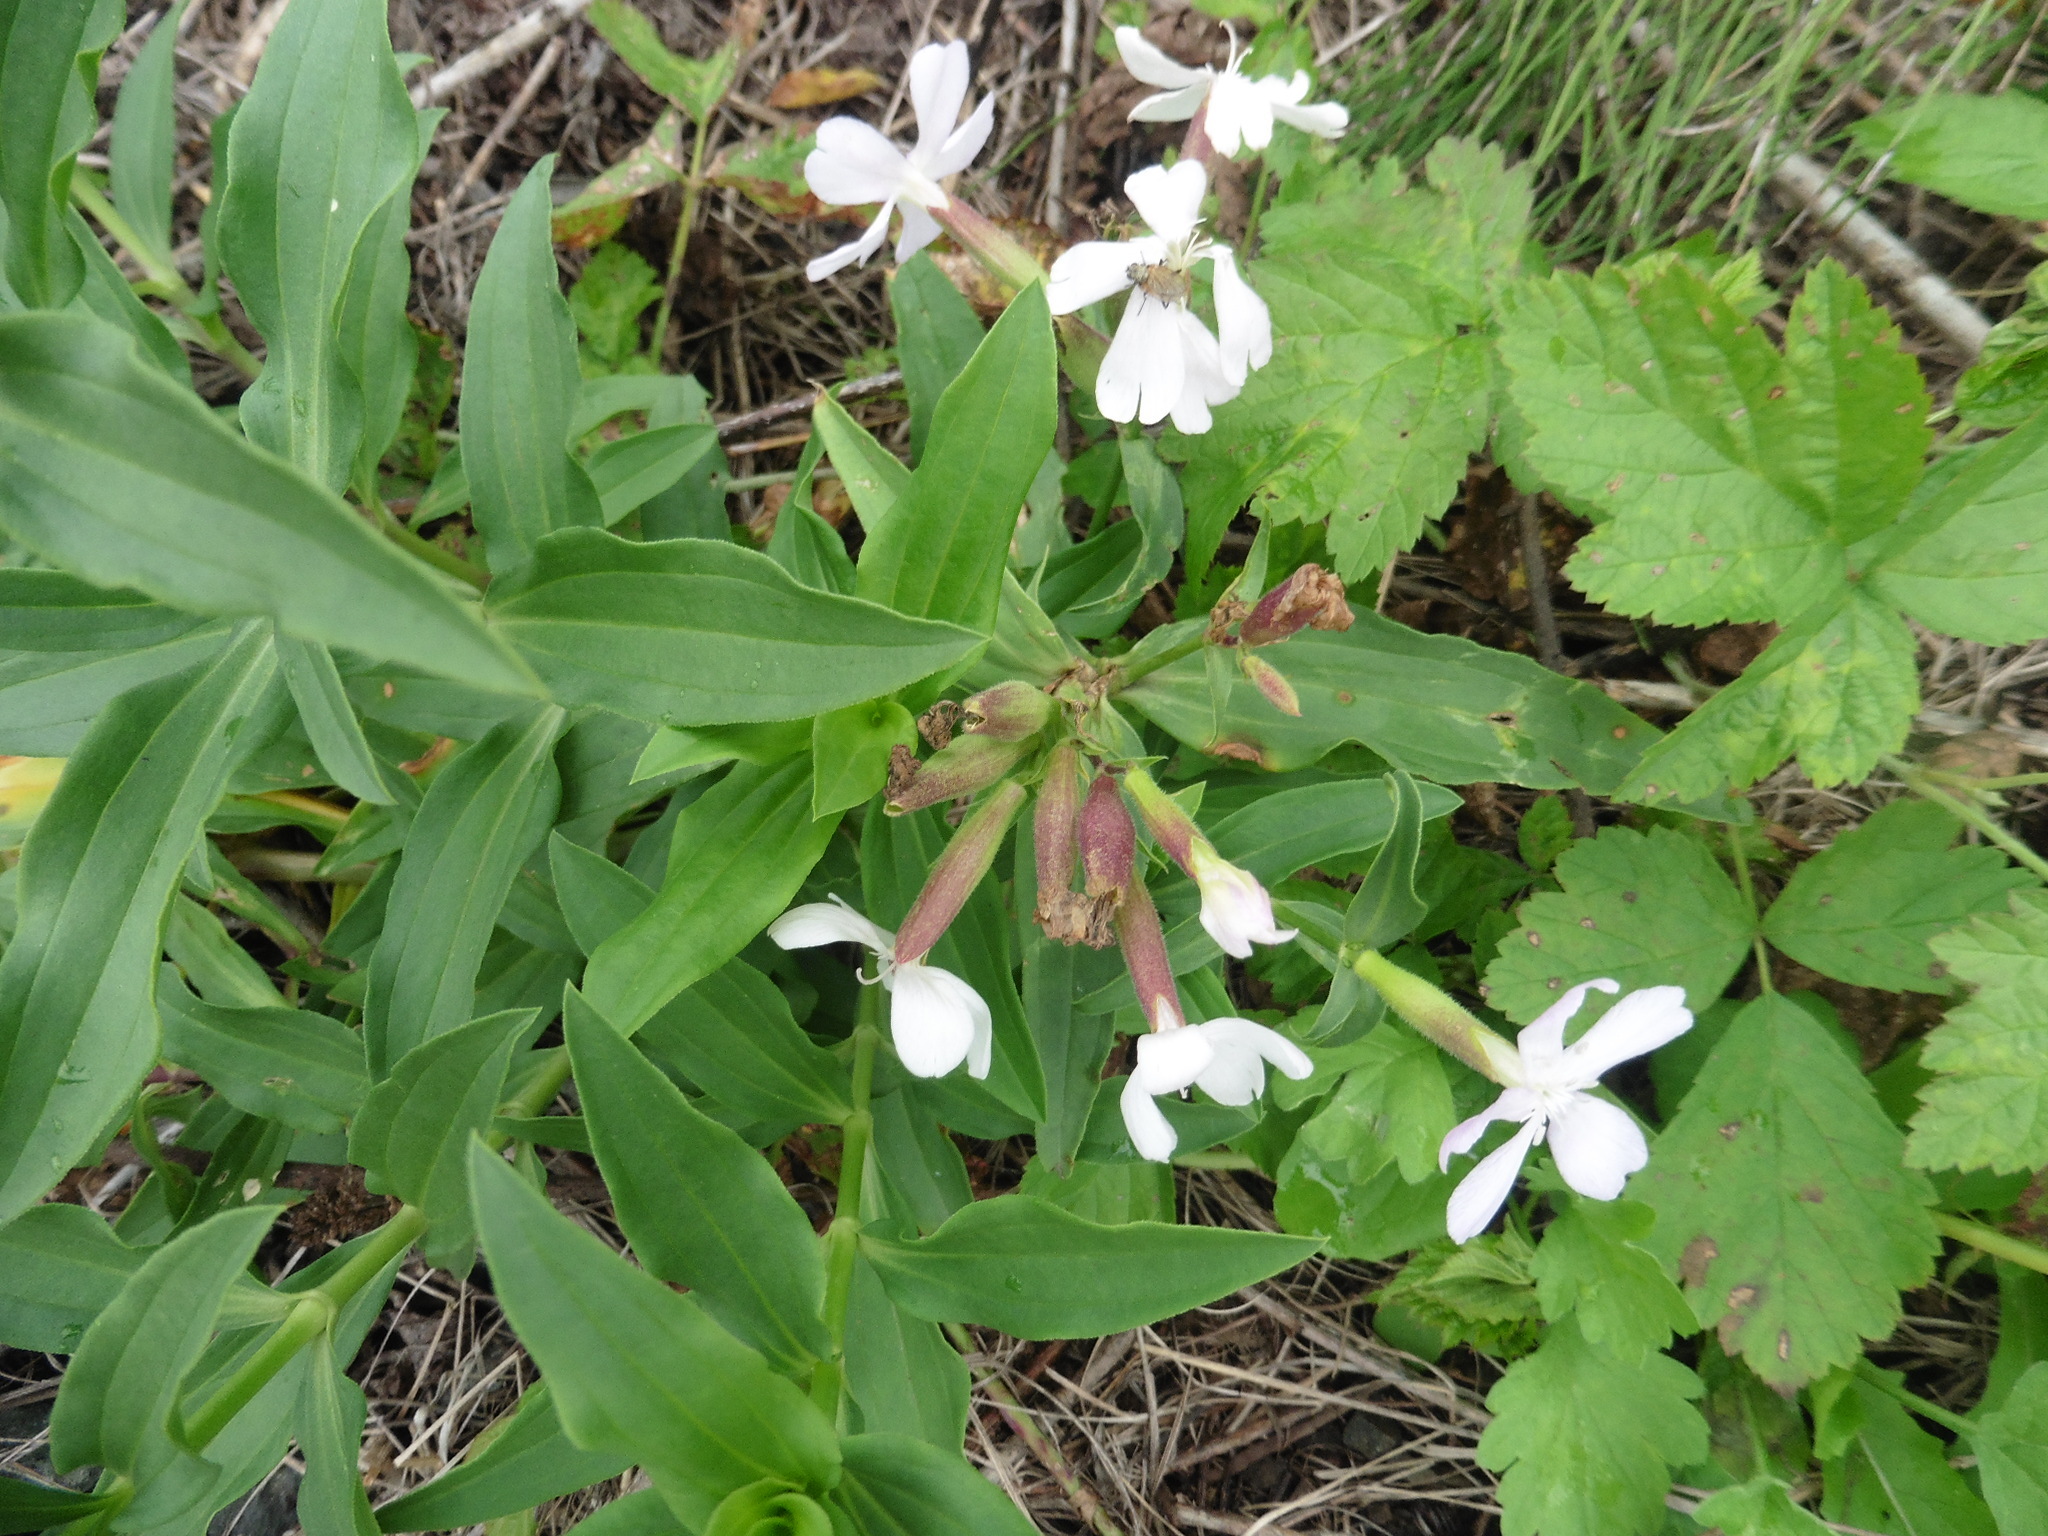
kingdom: Plantae
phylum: Tracheophyta
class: Magnoliopsida
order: Caryophyllales
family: Caryophyllaceae
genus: Saponaria
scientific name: Saponaria officinalis
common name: Soapwort
